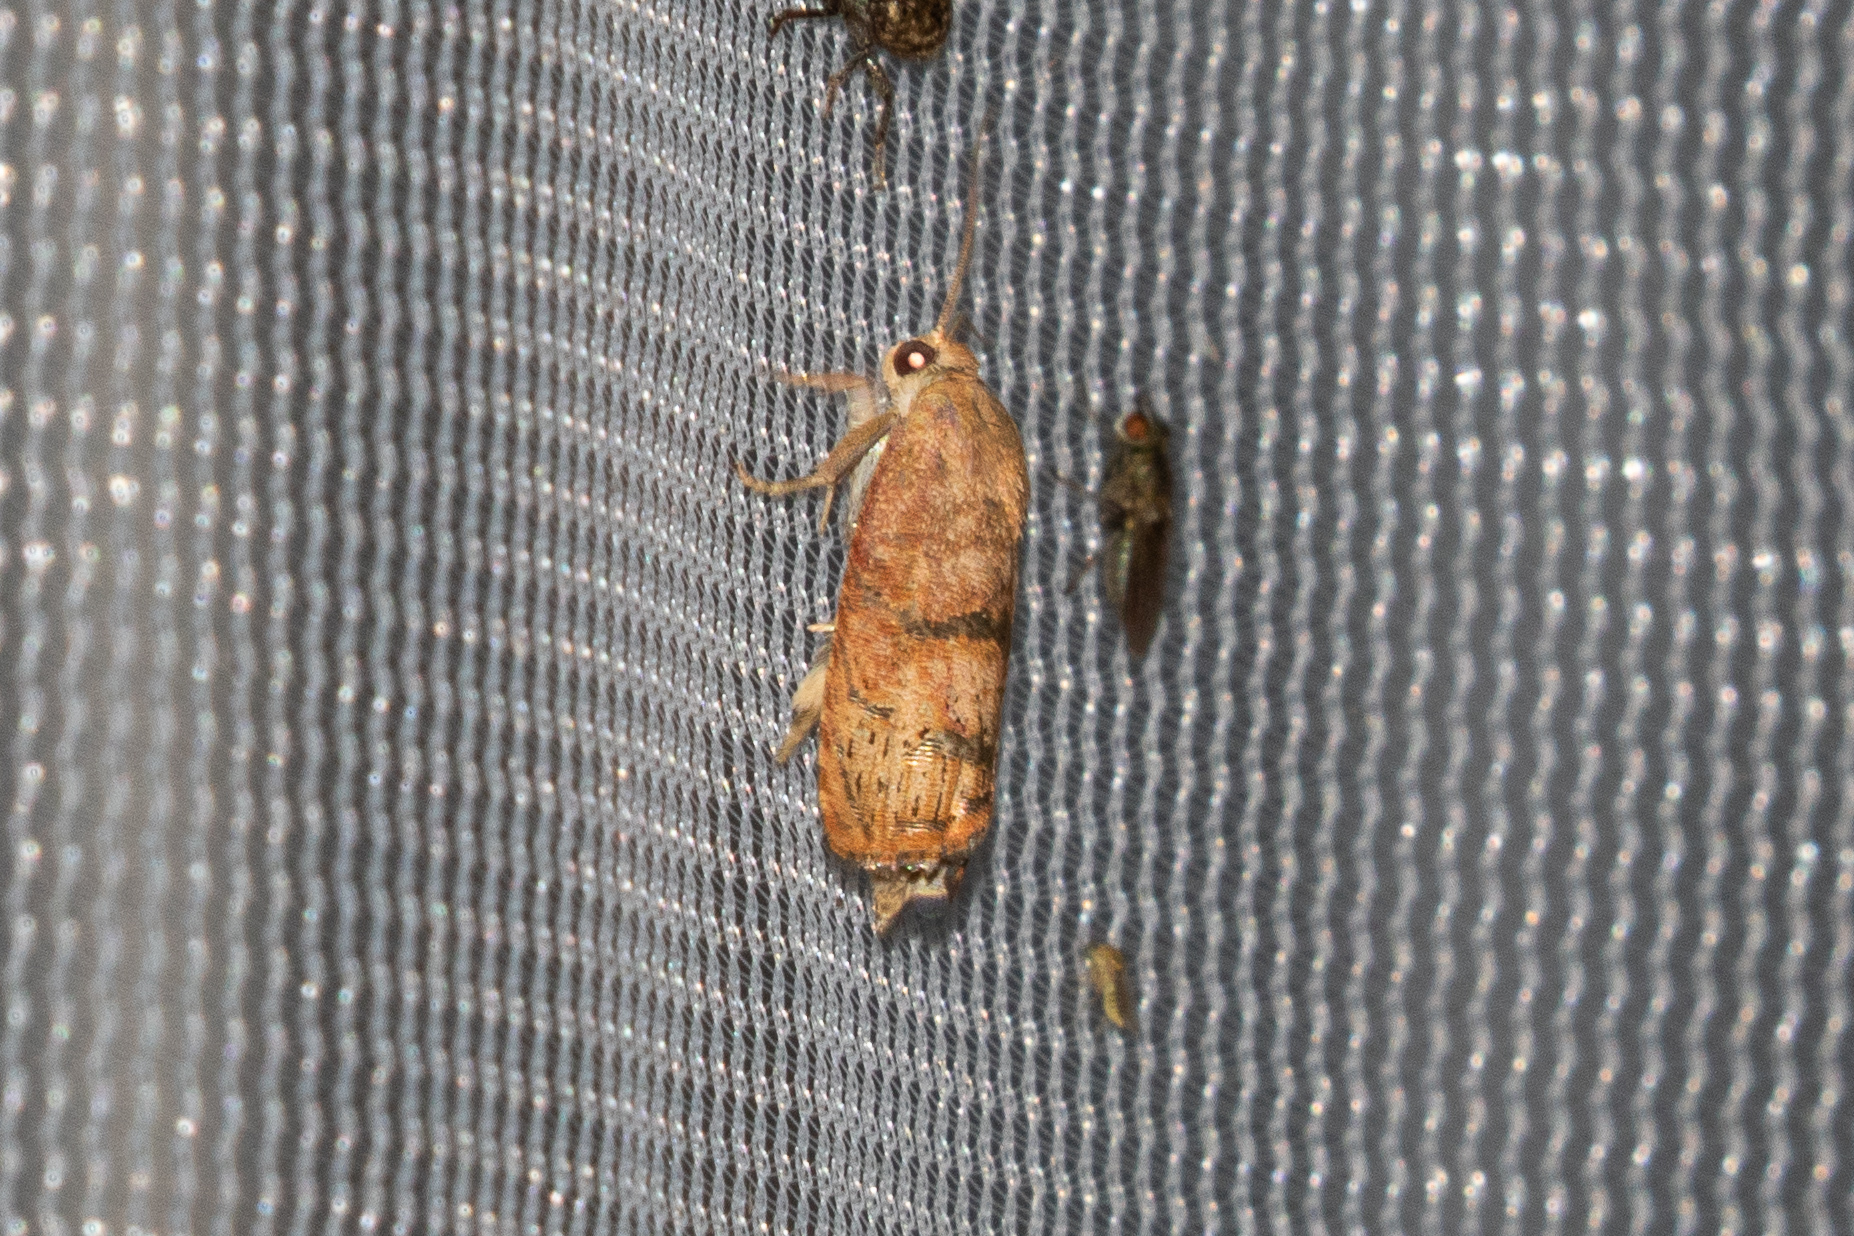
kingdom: Animalia
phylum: Arthropoda
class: Insecta
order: Lepidoptera
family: Tortricidae
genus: Cydia
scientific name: Cydia latiferreana
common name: Filbertworm moth
